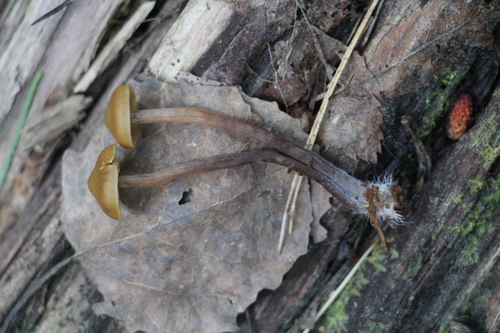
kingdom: Fungi
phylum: Basidiomycota
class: Agaricomycetes
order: Agaricales
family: Strophariaceae
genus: Pholiota
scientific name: Pholiota lignicola
